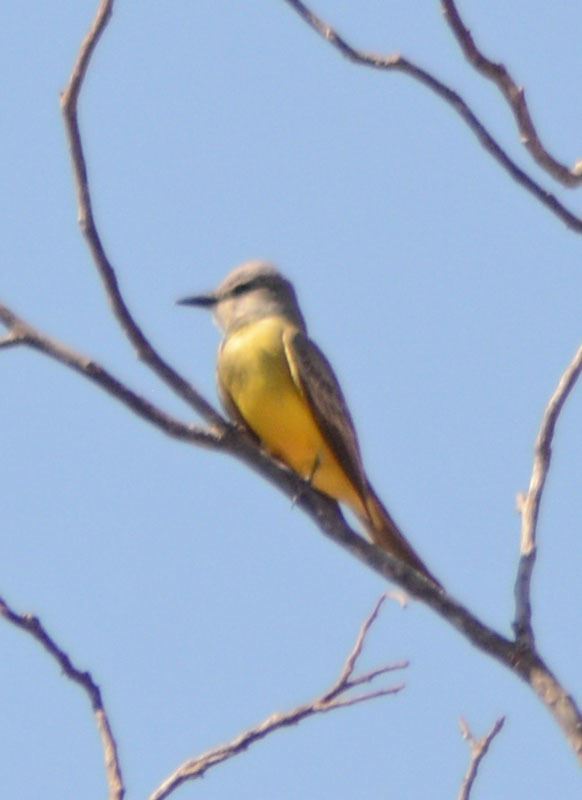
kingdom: Animalia
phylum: Chordata
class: Aves
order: Passeriformes
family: Tyrannidae
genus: Tyrannus
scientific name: Tyrannus melancholicus
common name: Tropical kingbird
